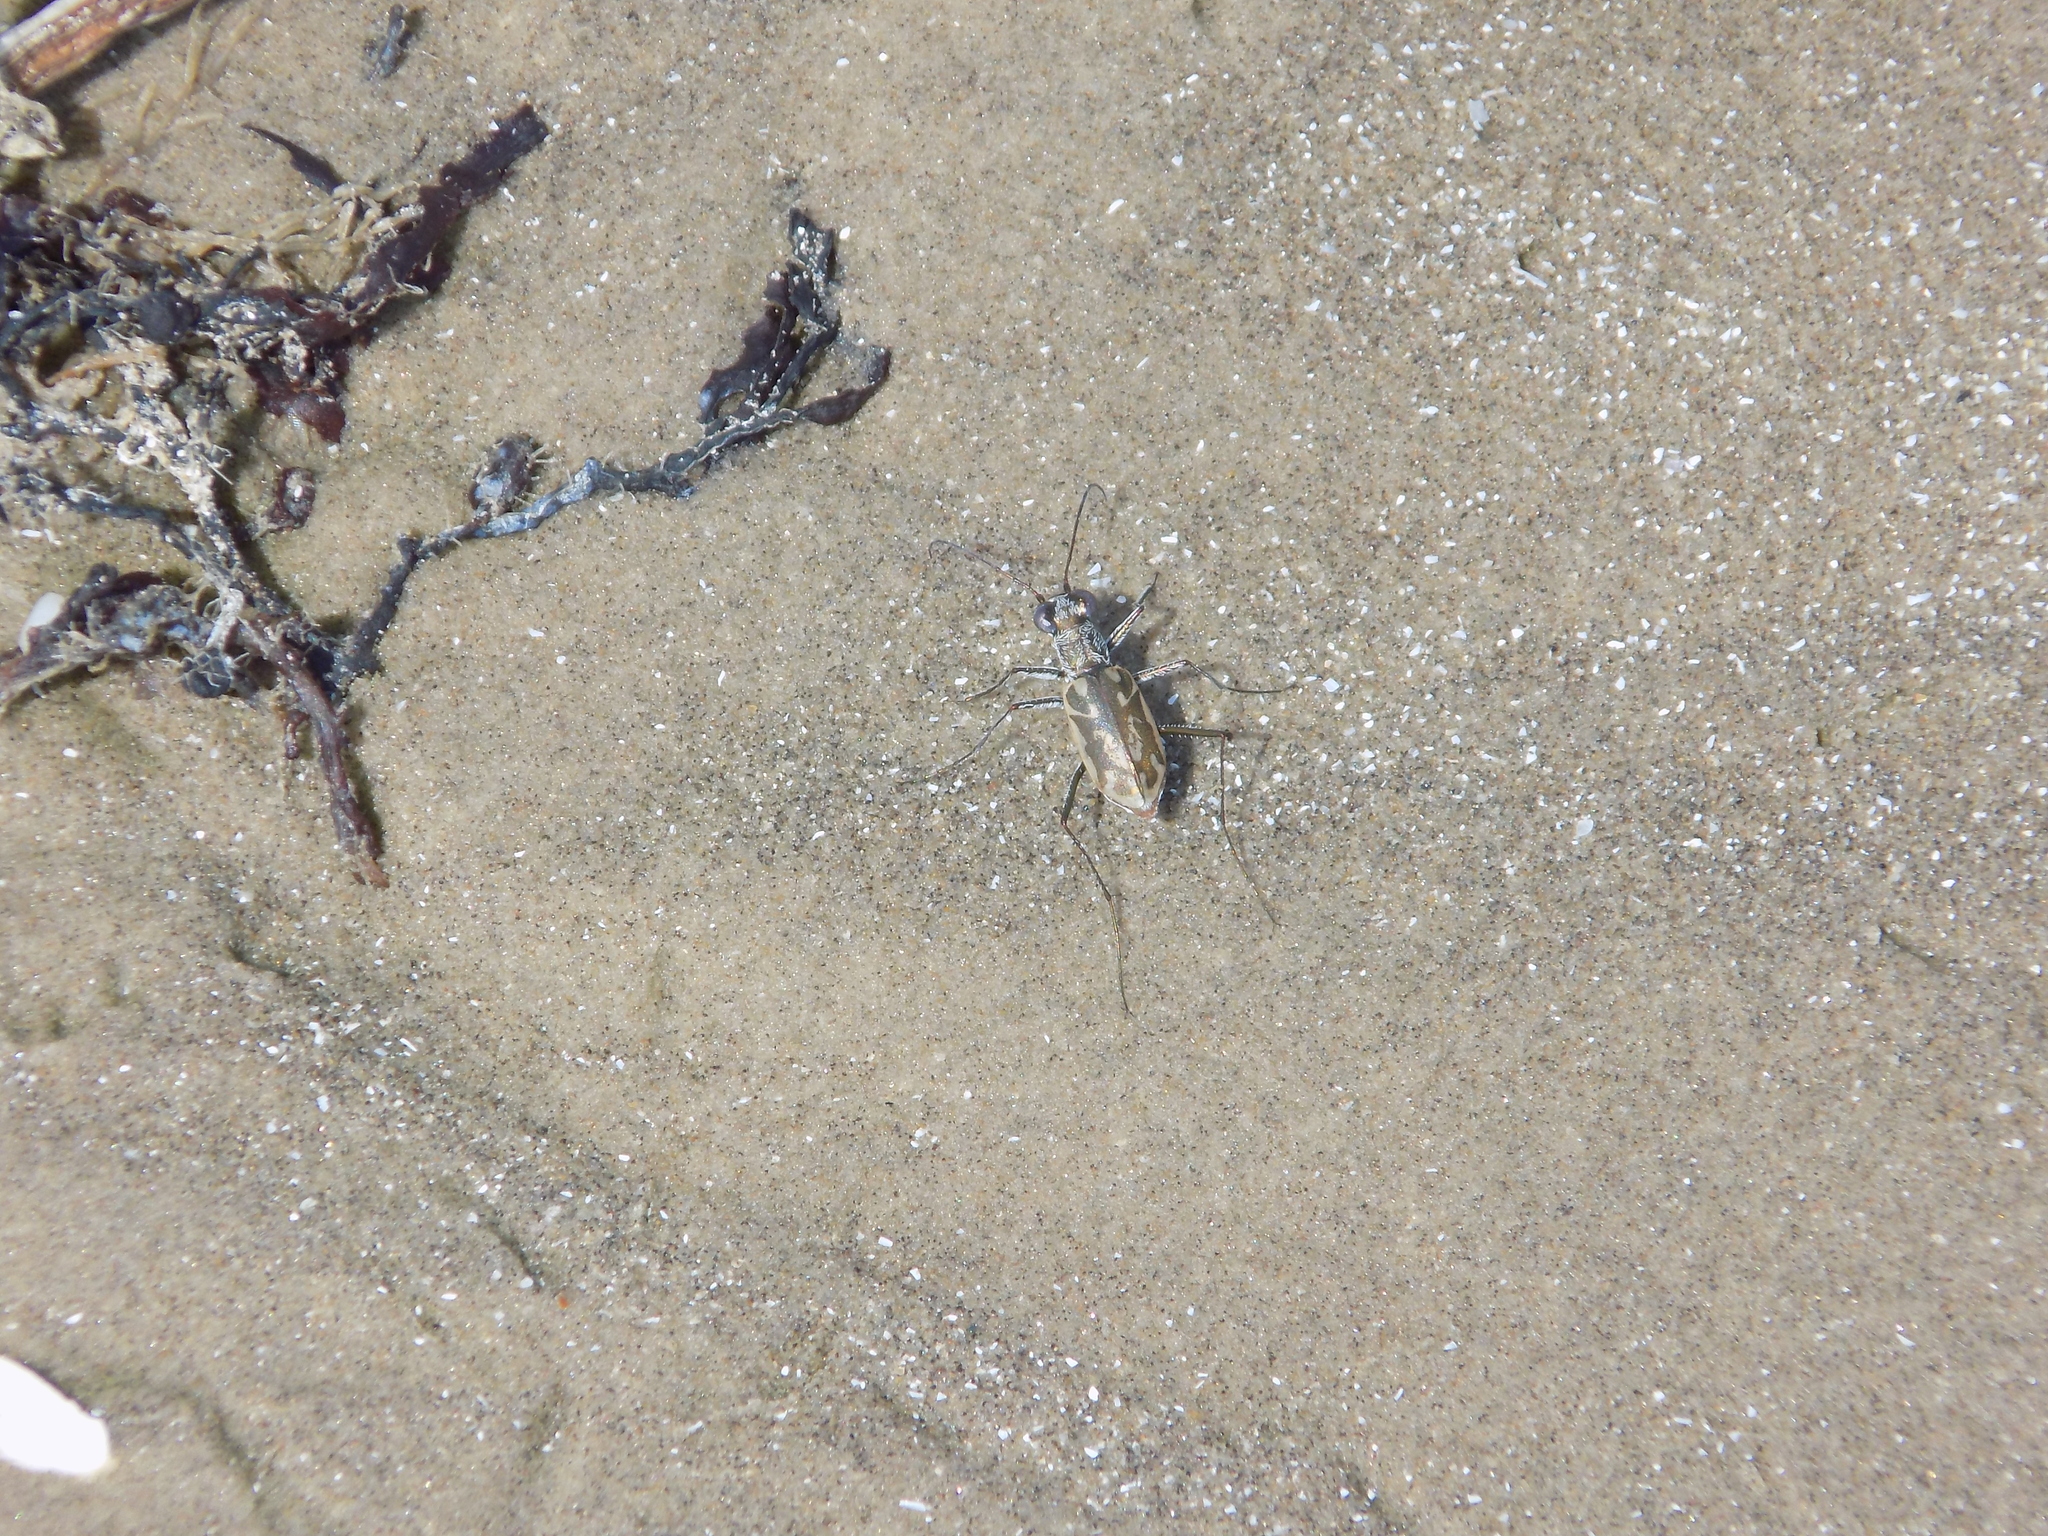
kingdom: Animalia
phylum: Arthropoda
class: Insecta
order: Coleoptera
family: Carabidae
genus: Ellipsoptera
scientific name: Ellipsoptera hamata
